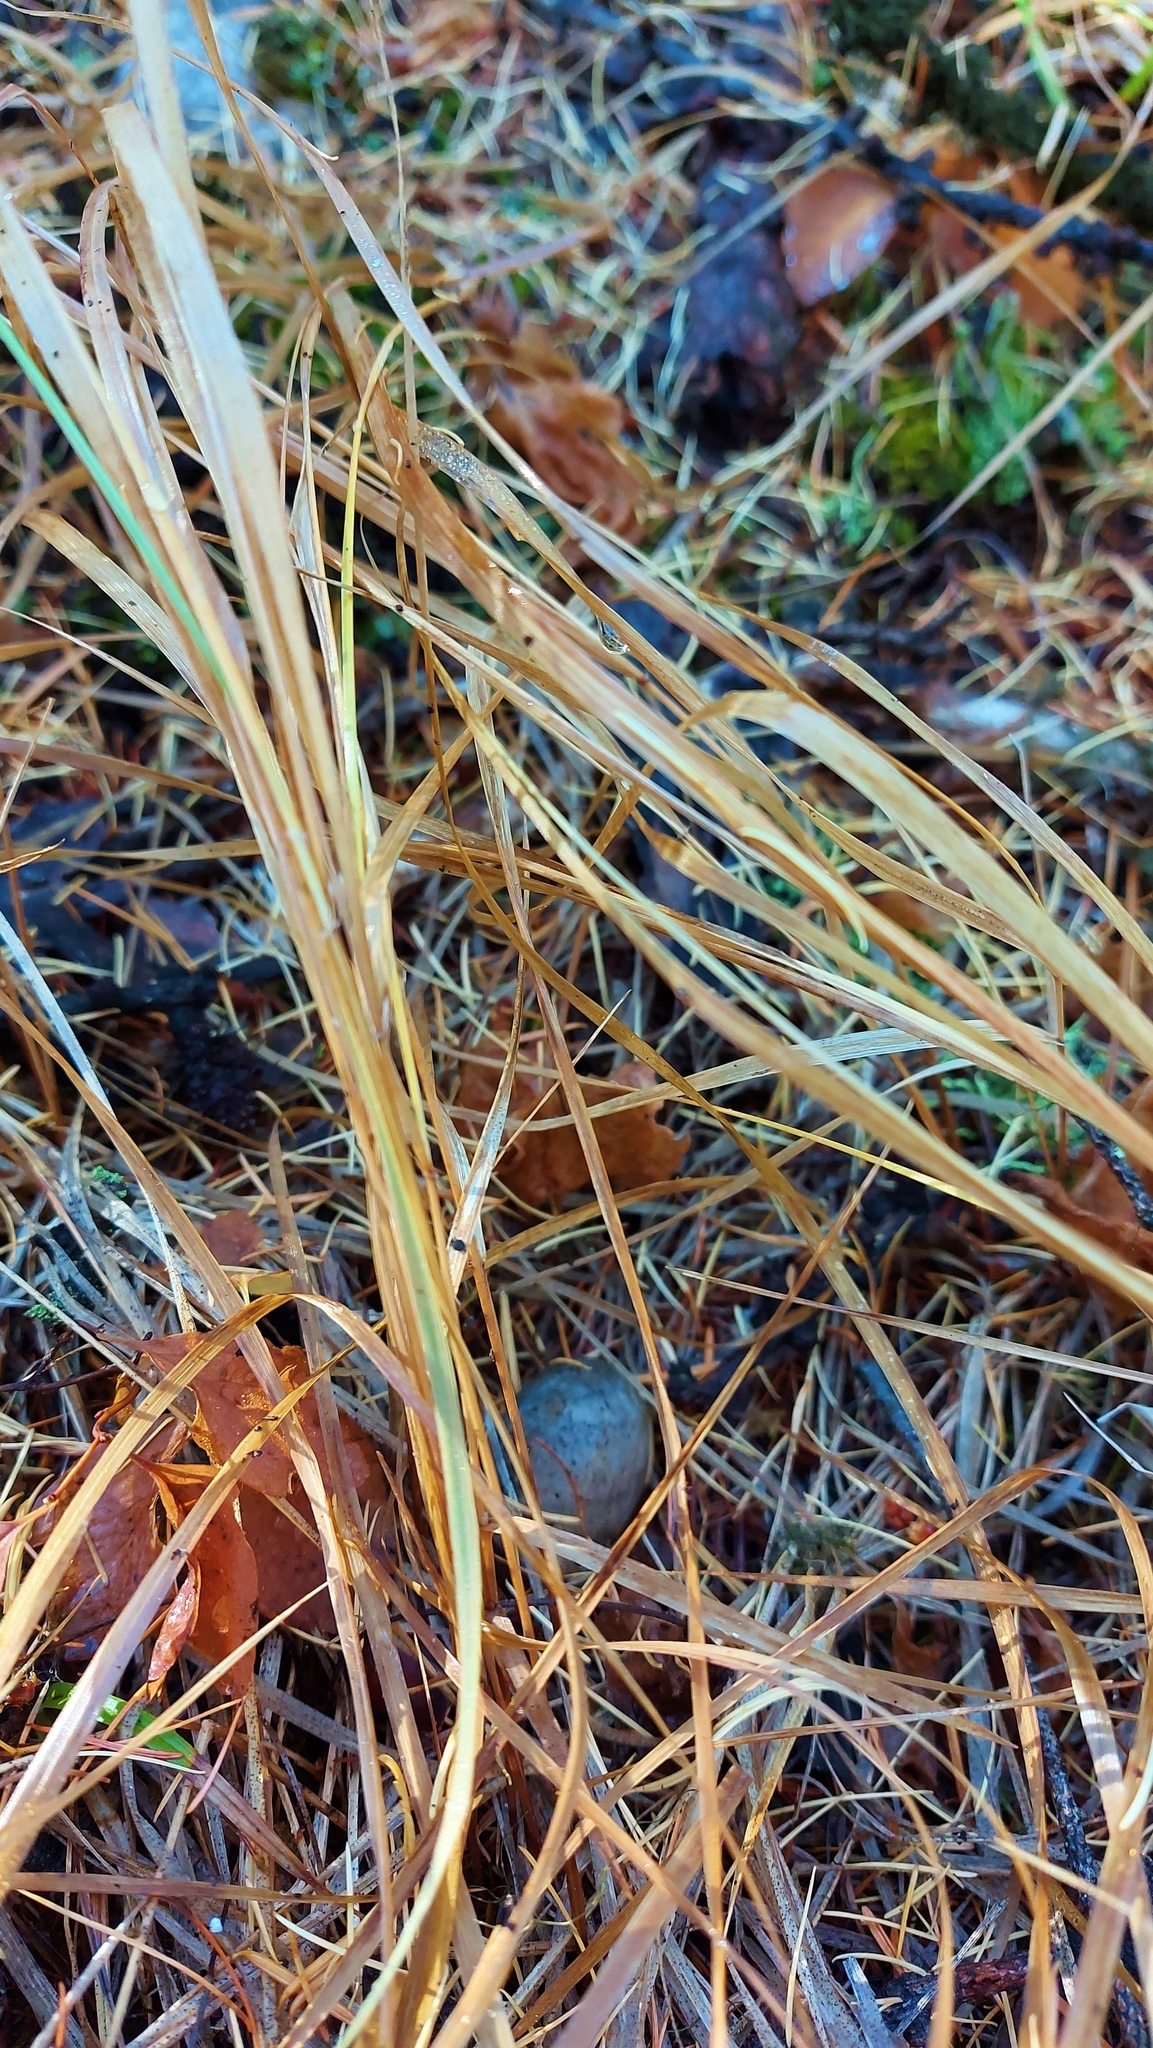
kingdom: Plantae
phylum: Tracheophyta
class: Liliopsida
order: Poales
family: Poaceae
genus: Calamagrostis
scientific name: Calamagrostis rubescens
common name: Pine grass
